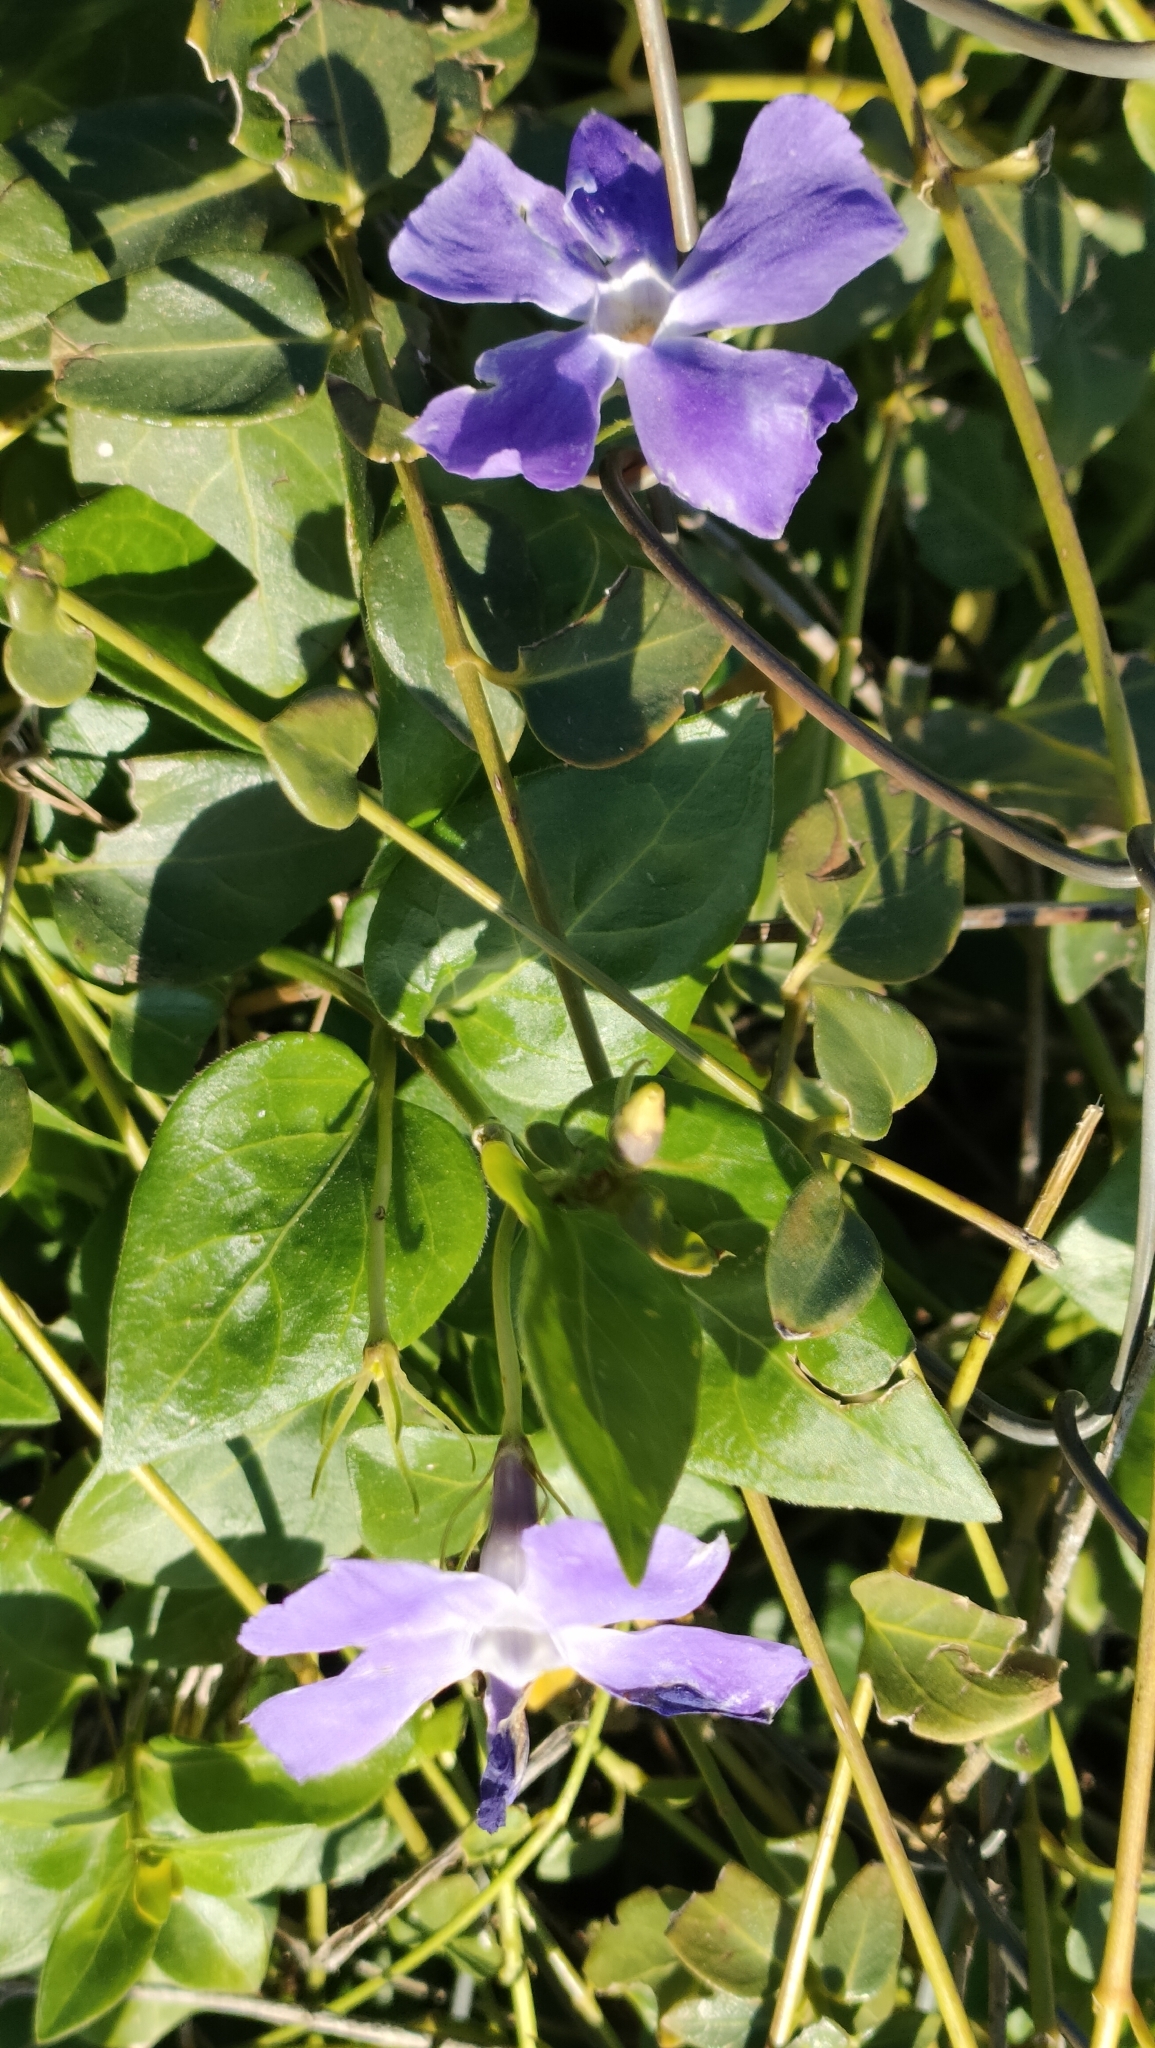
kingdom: Plantae
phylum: Tracheophyta
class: Magnoliopsida
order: Gentianales
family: Apocynaceae
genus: Vinca
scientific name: Vinca major
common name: Greater periwinkle
